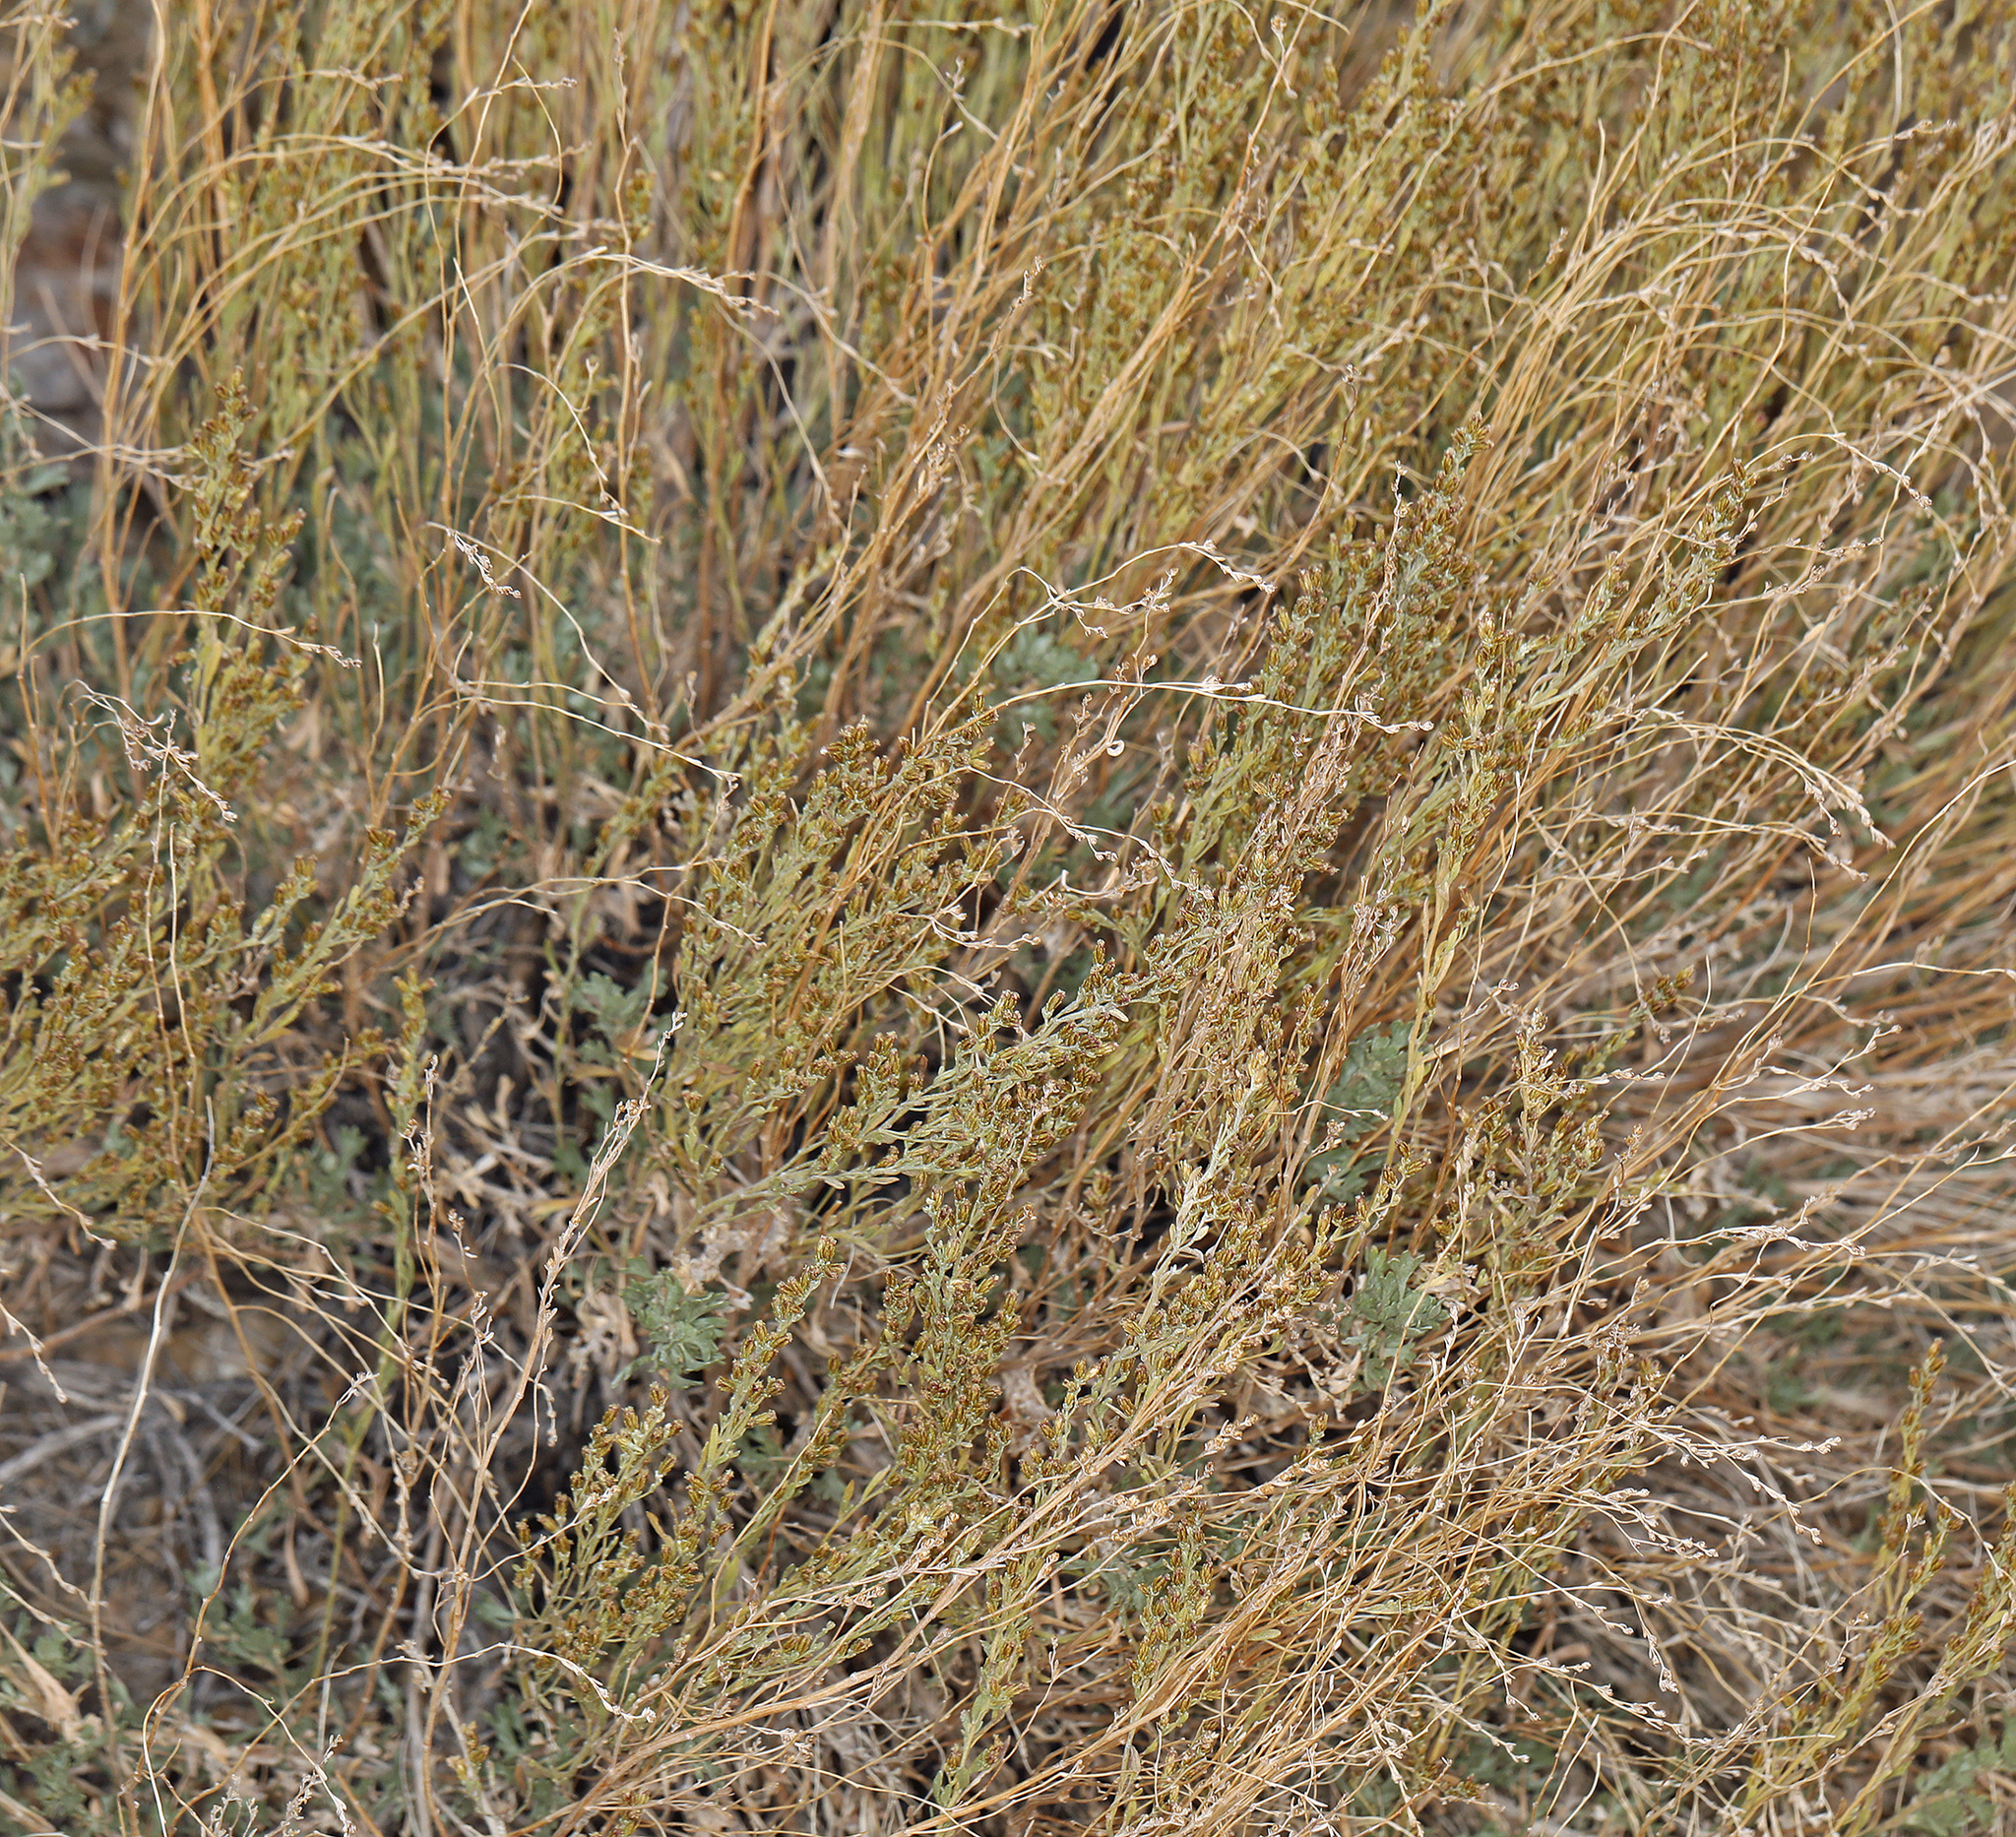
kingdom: Plantae
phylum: Tracheophyta
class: Magnoliopsida
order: Asterales
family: Asteraceae
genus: Artemisia
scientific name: Artemisia nova
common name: Black-sage
